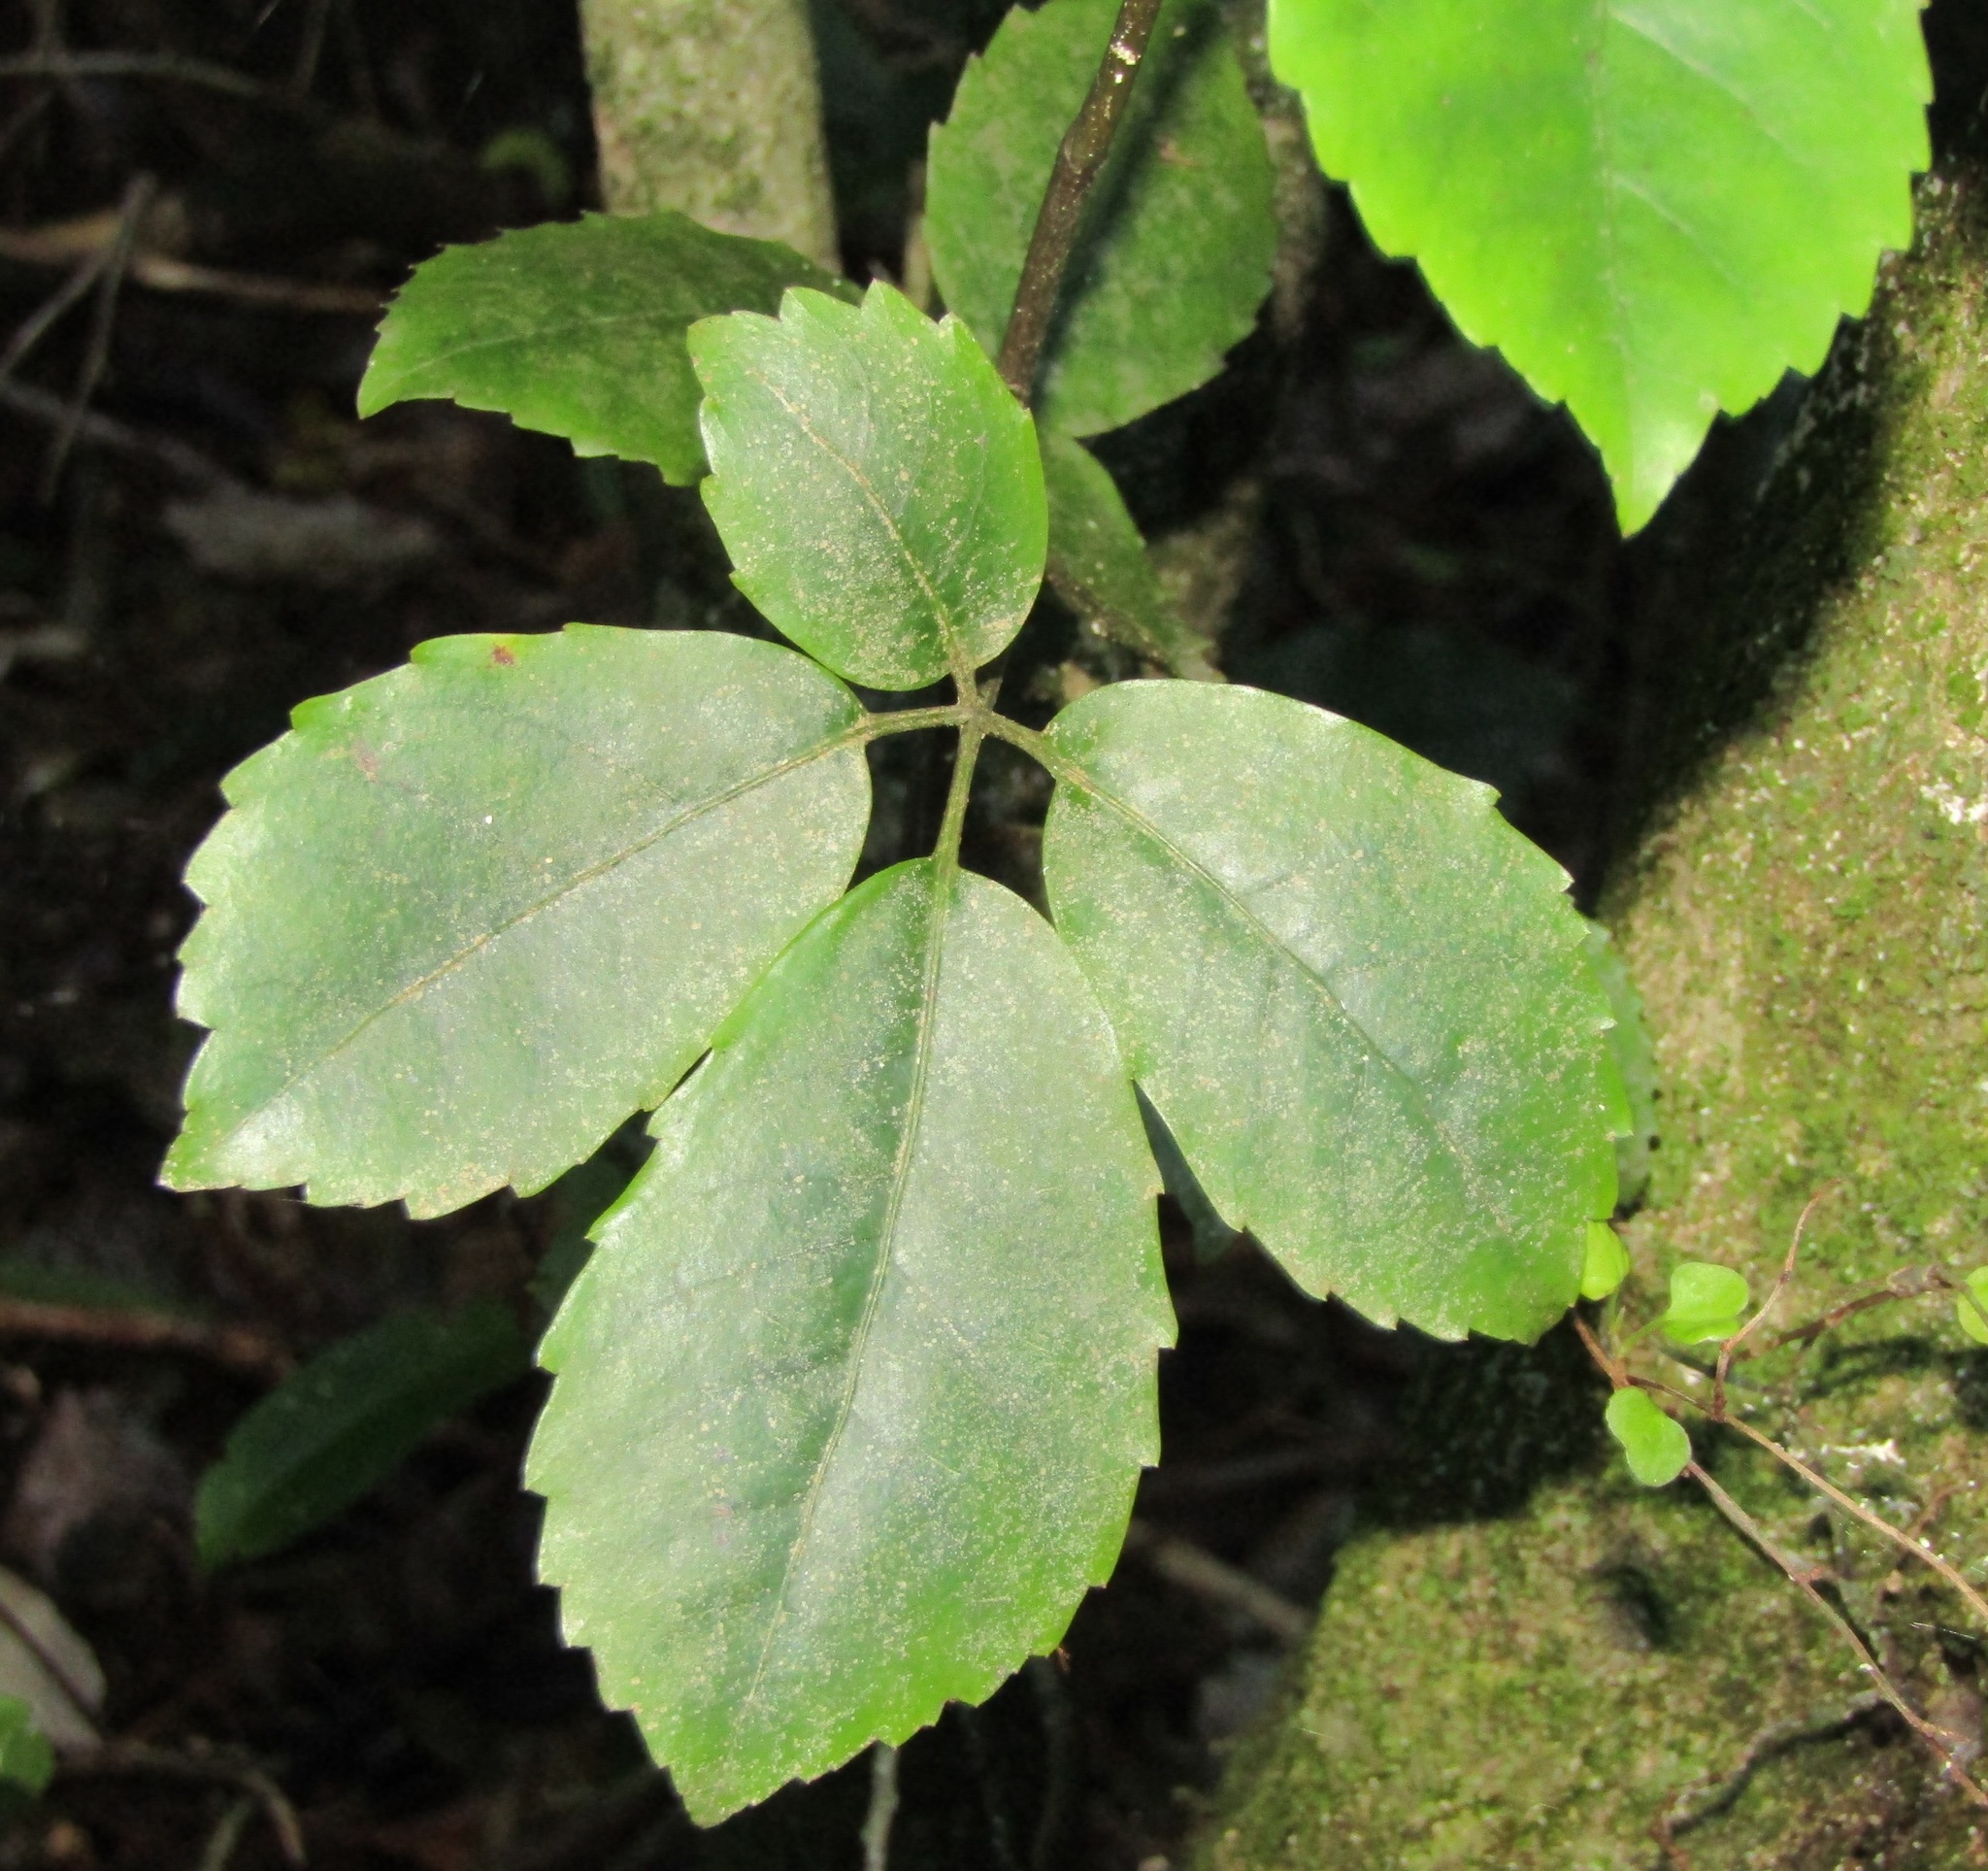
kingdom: Plantae
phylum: Tracheophyta
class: Magnoliopsida
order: Apiales
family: Araliaceae
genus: Neopanax
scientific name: Neopanax arboreus
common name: Five-fingers
